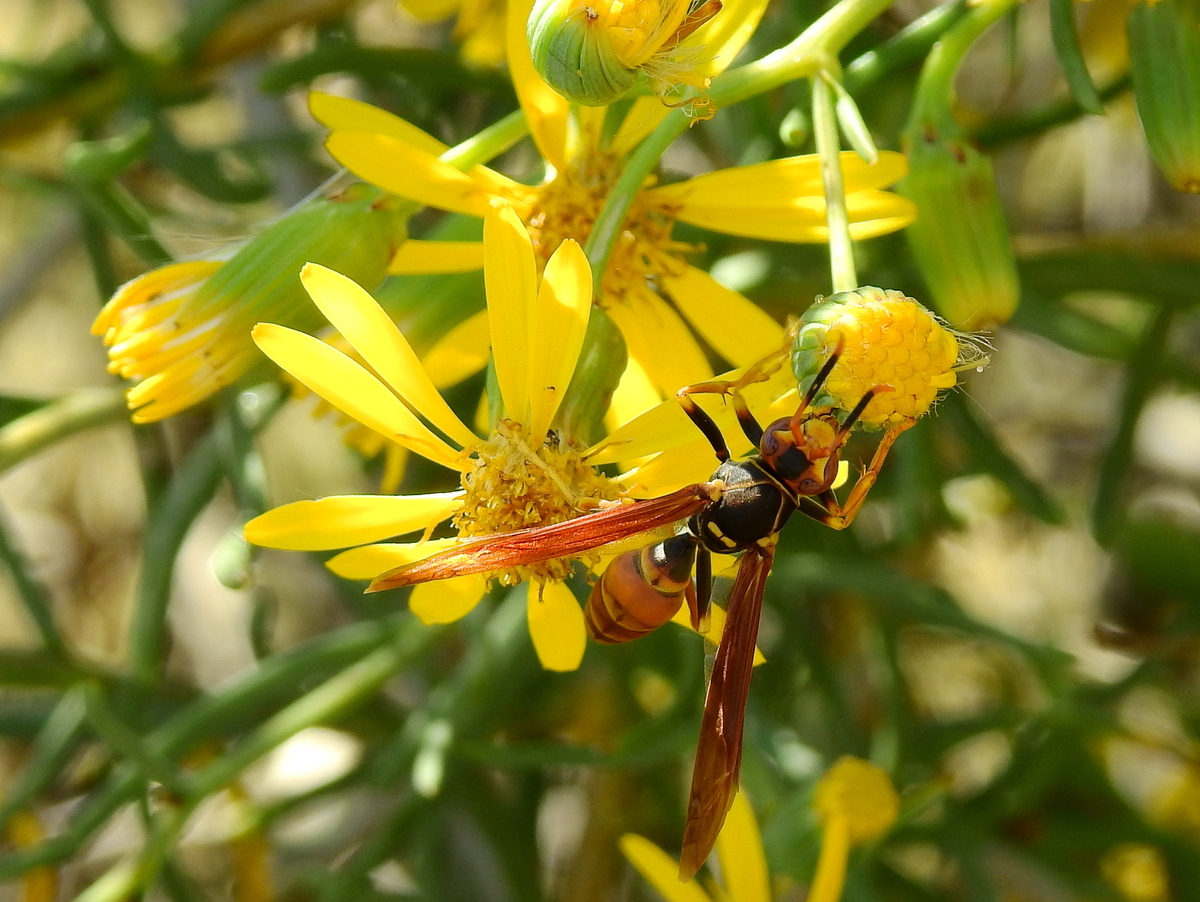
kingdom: Animalia
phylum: Arthropoda
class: Insecta
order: Hymenoptera
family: Eumenidae
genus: Polistes
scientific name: Polistes buyssoni
